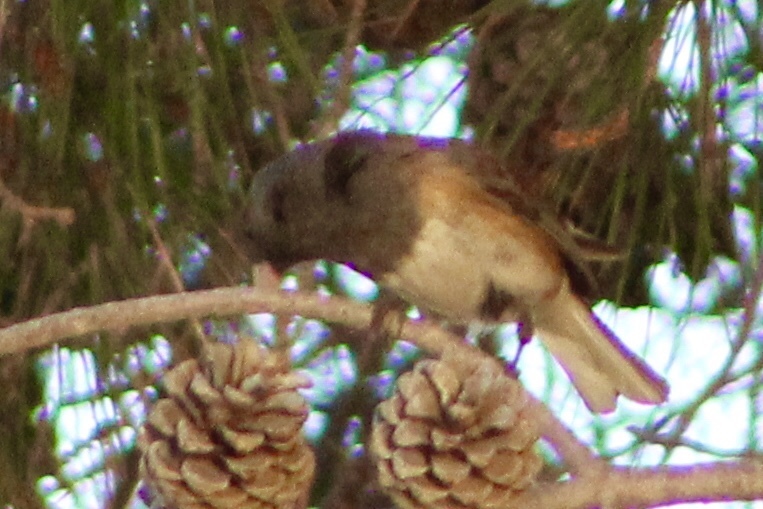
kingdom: Animalia
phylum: Chordata
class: Aves
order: Passeriformes
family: Passerellidae
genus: Junco
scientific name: Junco hyemalis
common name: Dark-eyed junco
